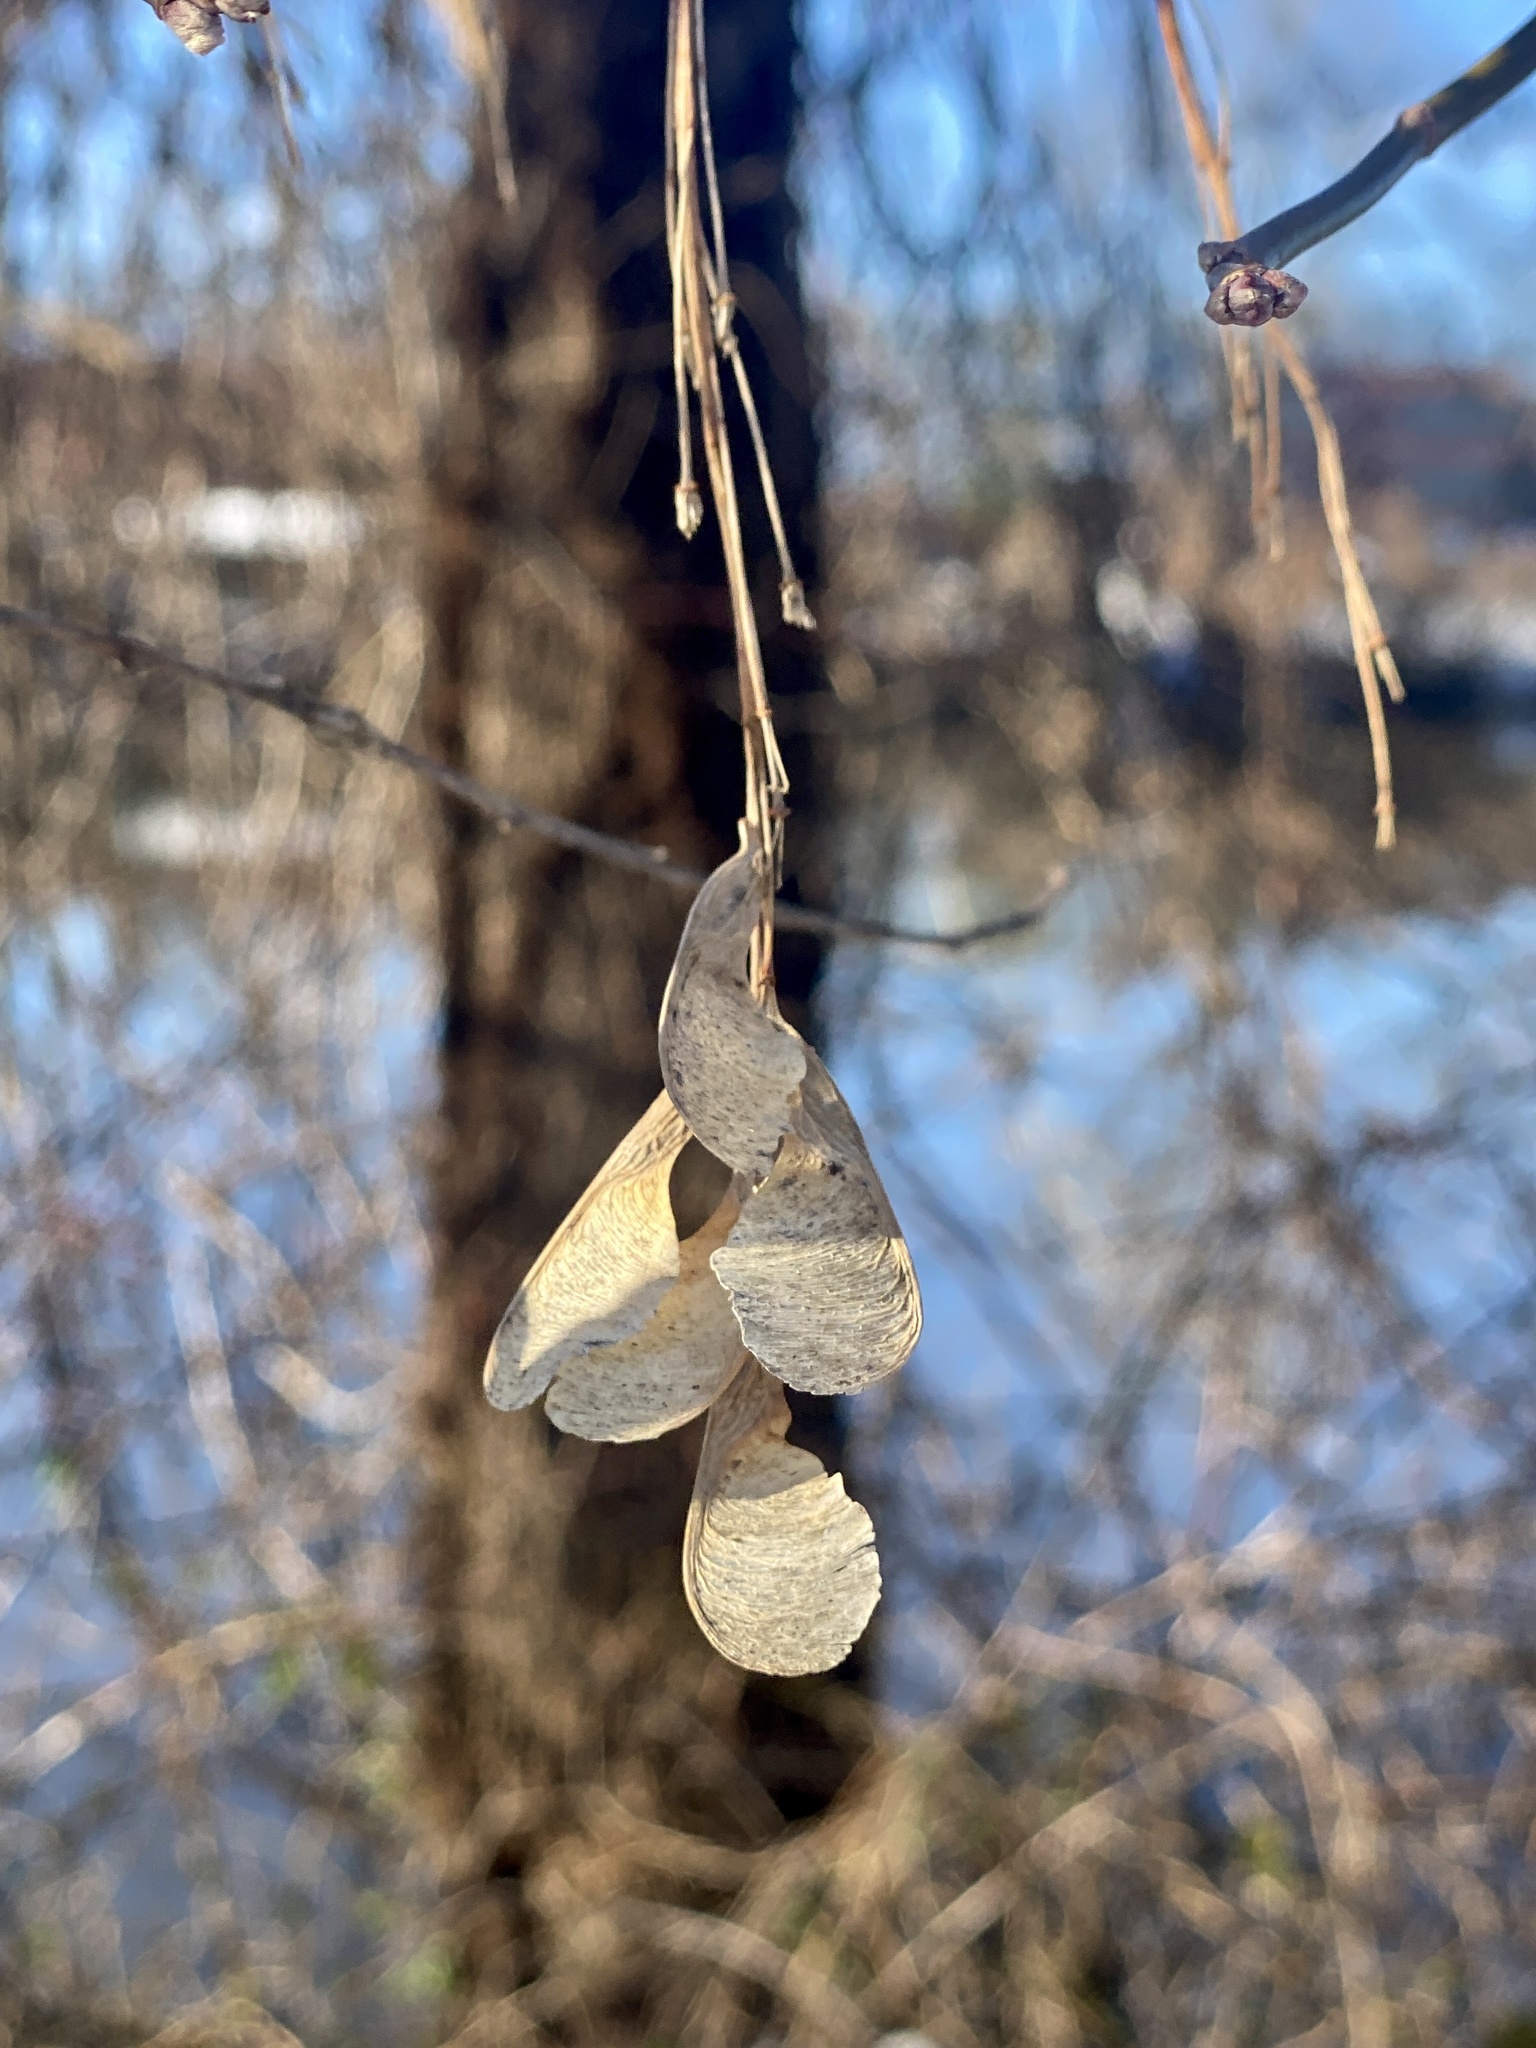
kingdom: Plantae
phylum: Tracheophyta
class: Magnoliopsida
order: Sapindales
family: Sapindaceae
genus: Acer
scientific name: Acer negundo
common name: Ashleaf maple
